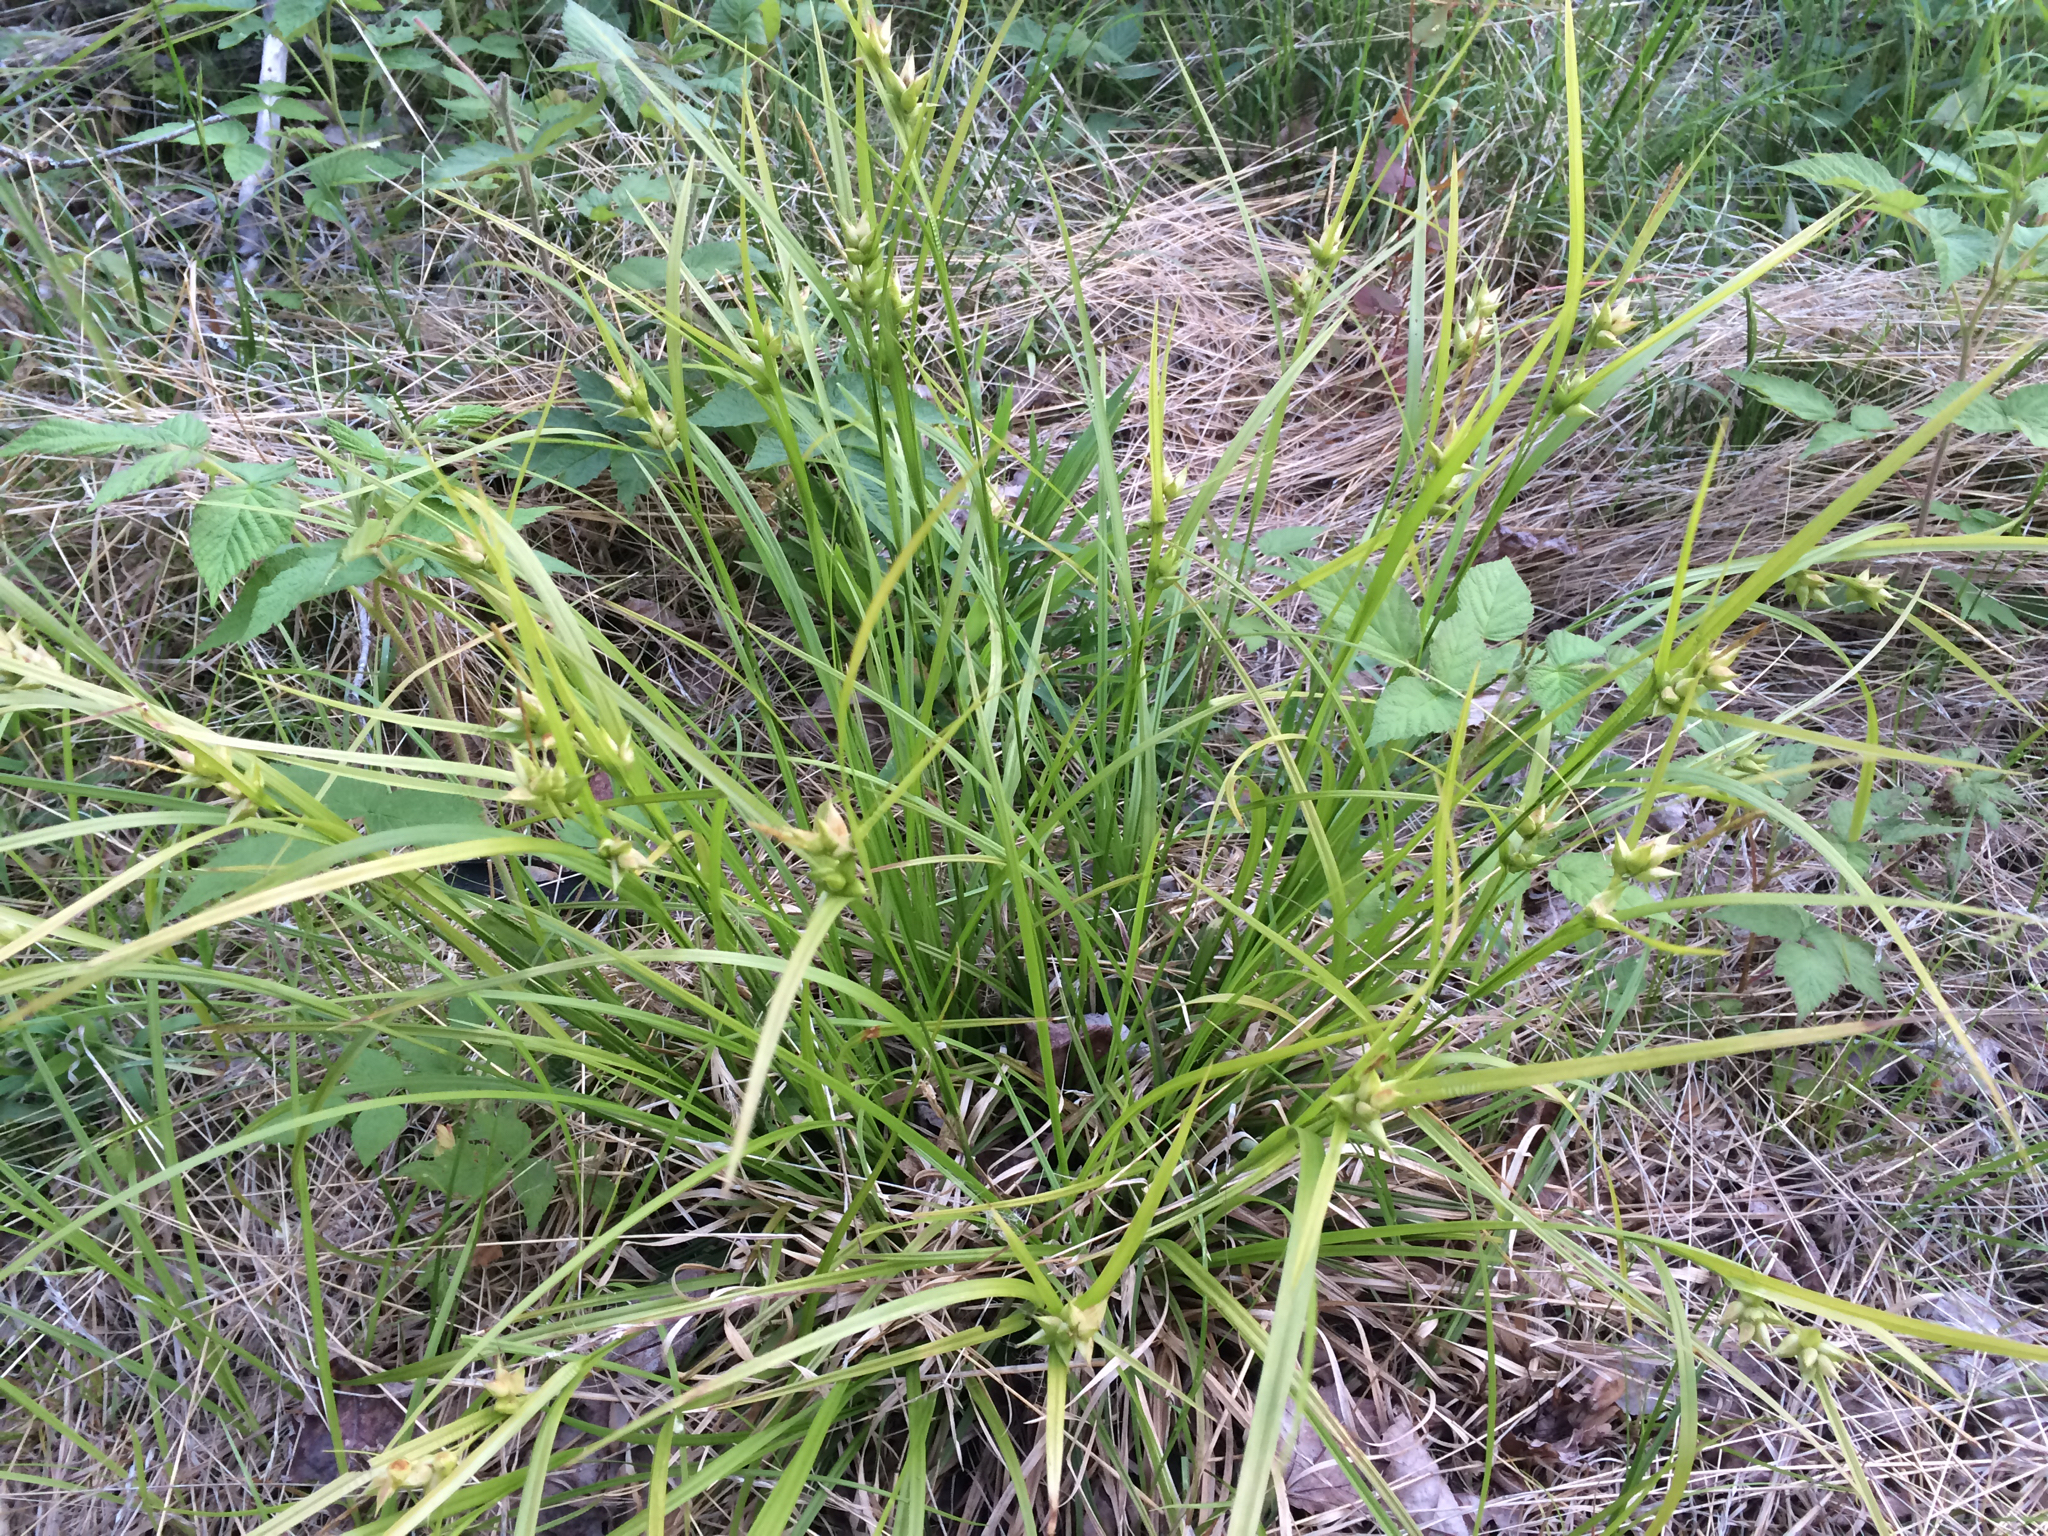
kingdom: Plantae
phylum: Tracheophyta
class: Liliopsida
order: Poales
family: Cyperaceae
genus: Carex
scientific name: Carex intumescens
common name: Greater bladder sedge
